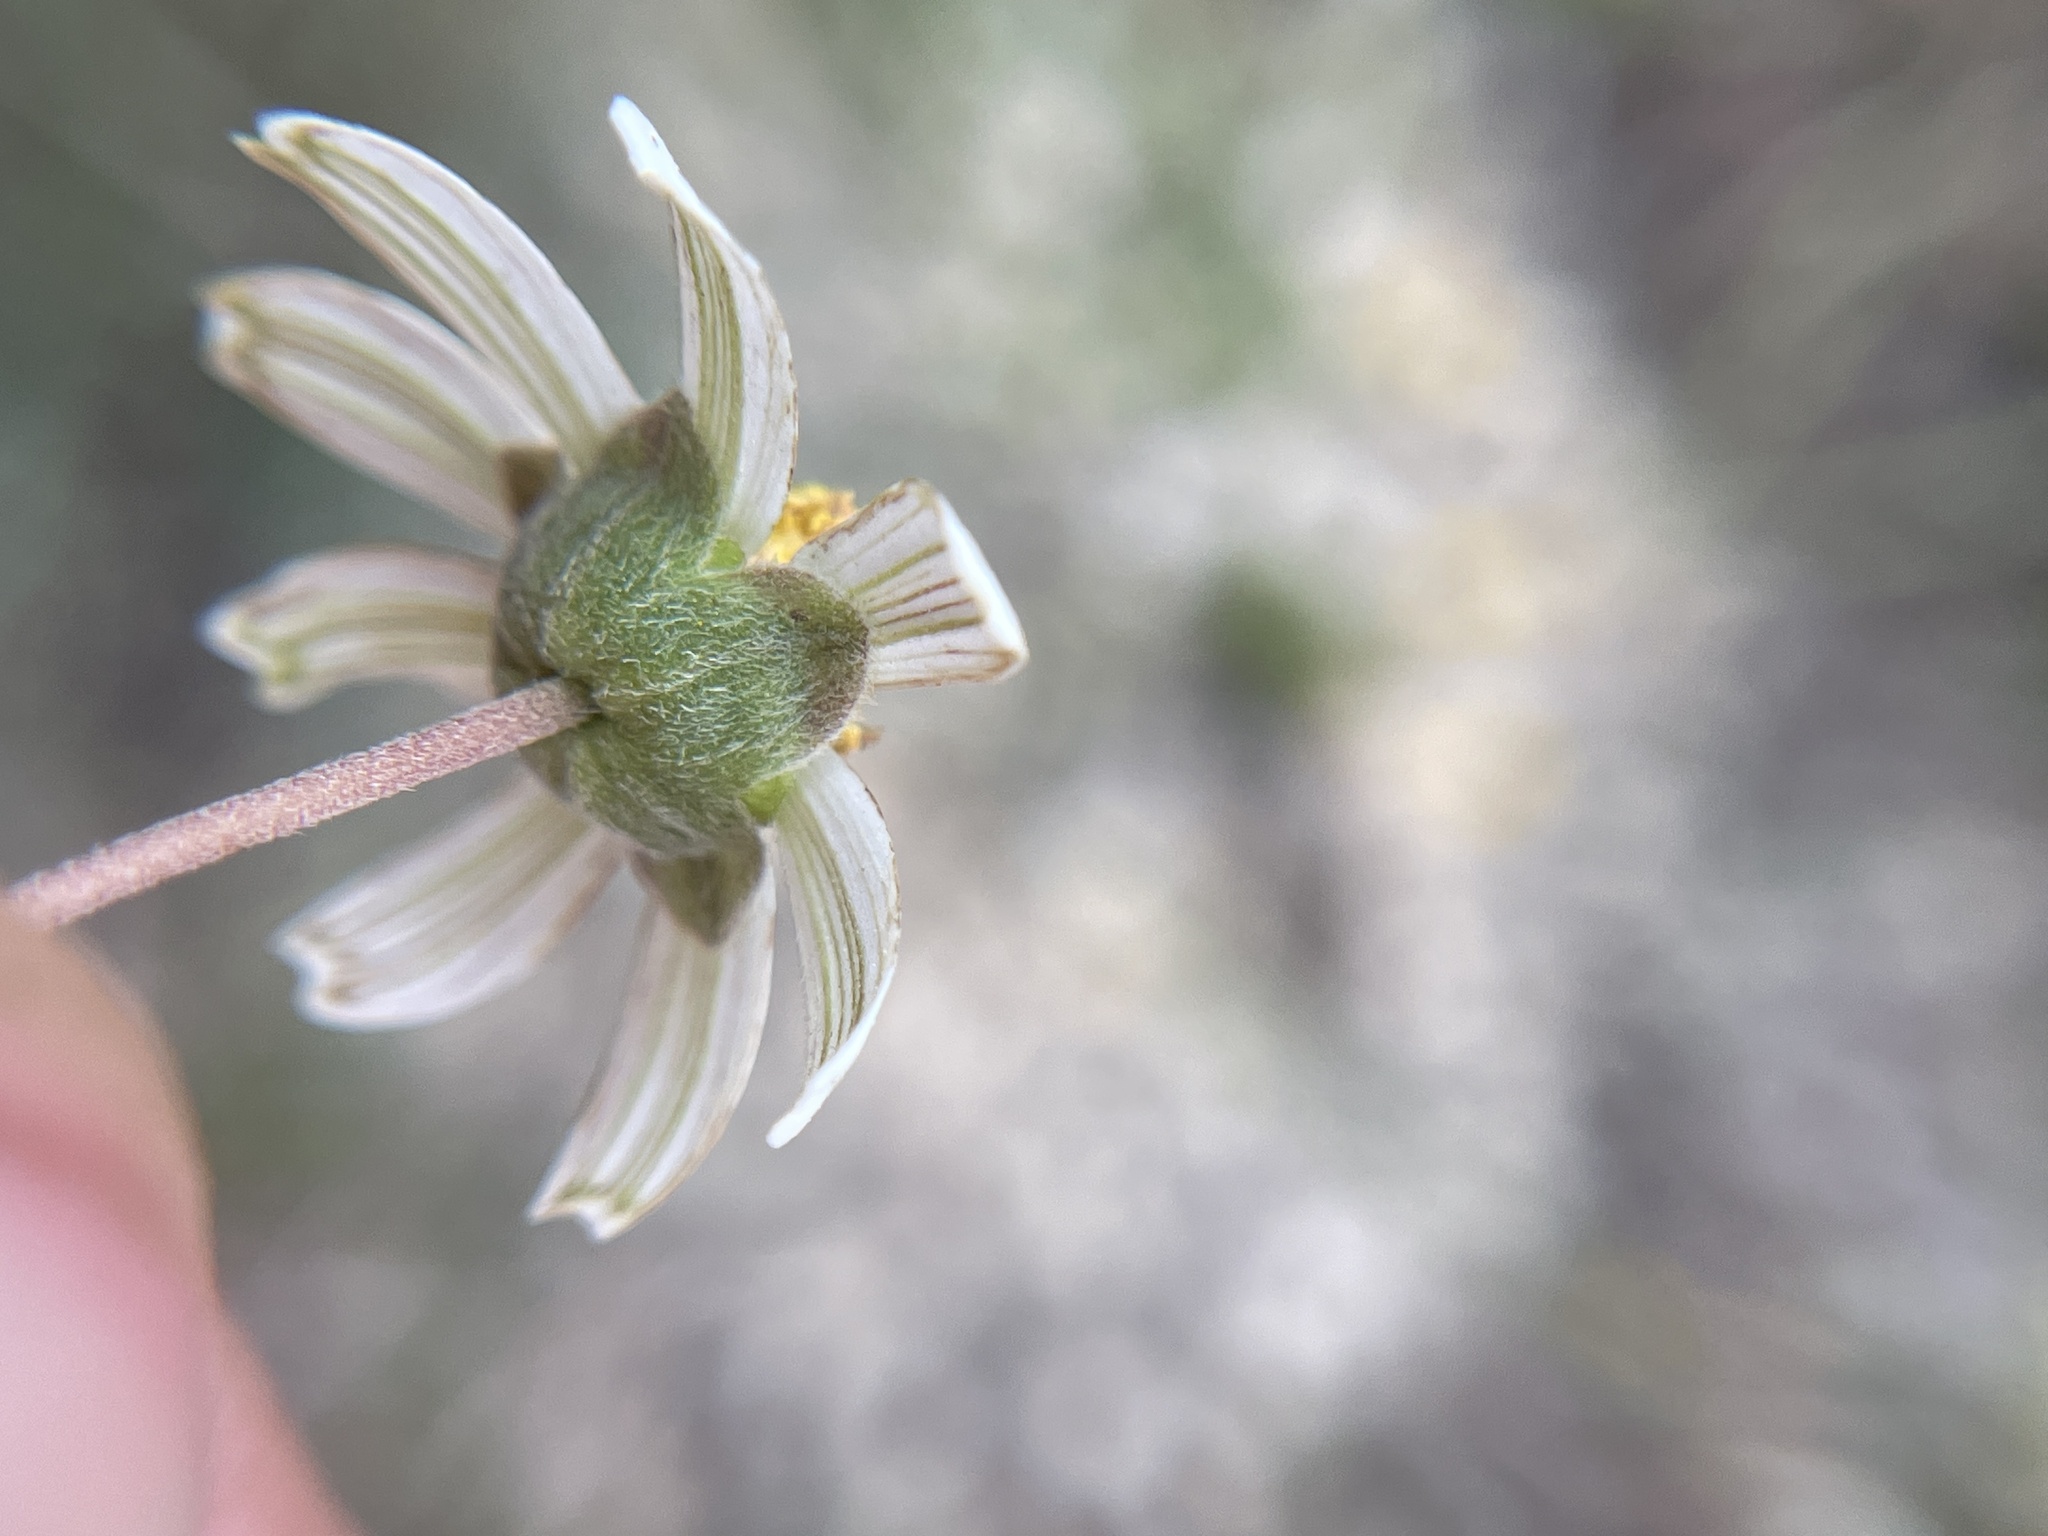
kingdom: Plantae
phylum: Tracheophyta
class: Magnoliopsida
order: Asterales
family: Asteraceae
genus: Melampodium
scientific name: Melampodium leucanthum
